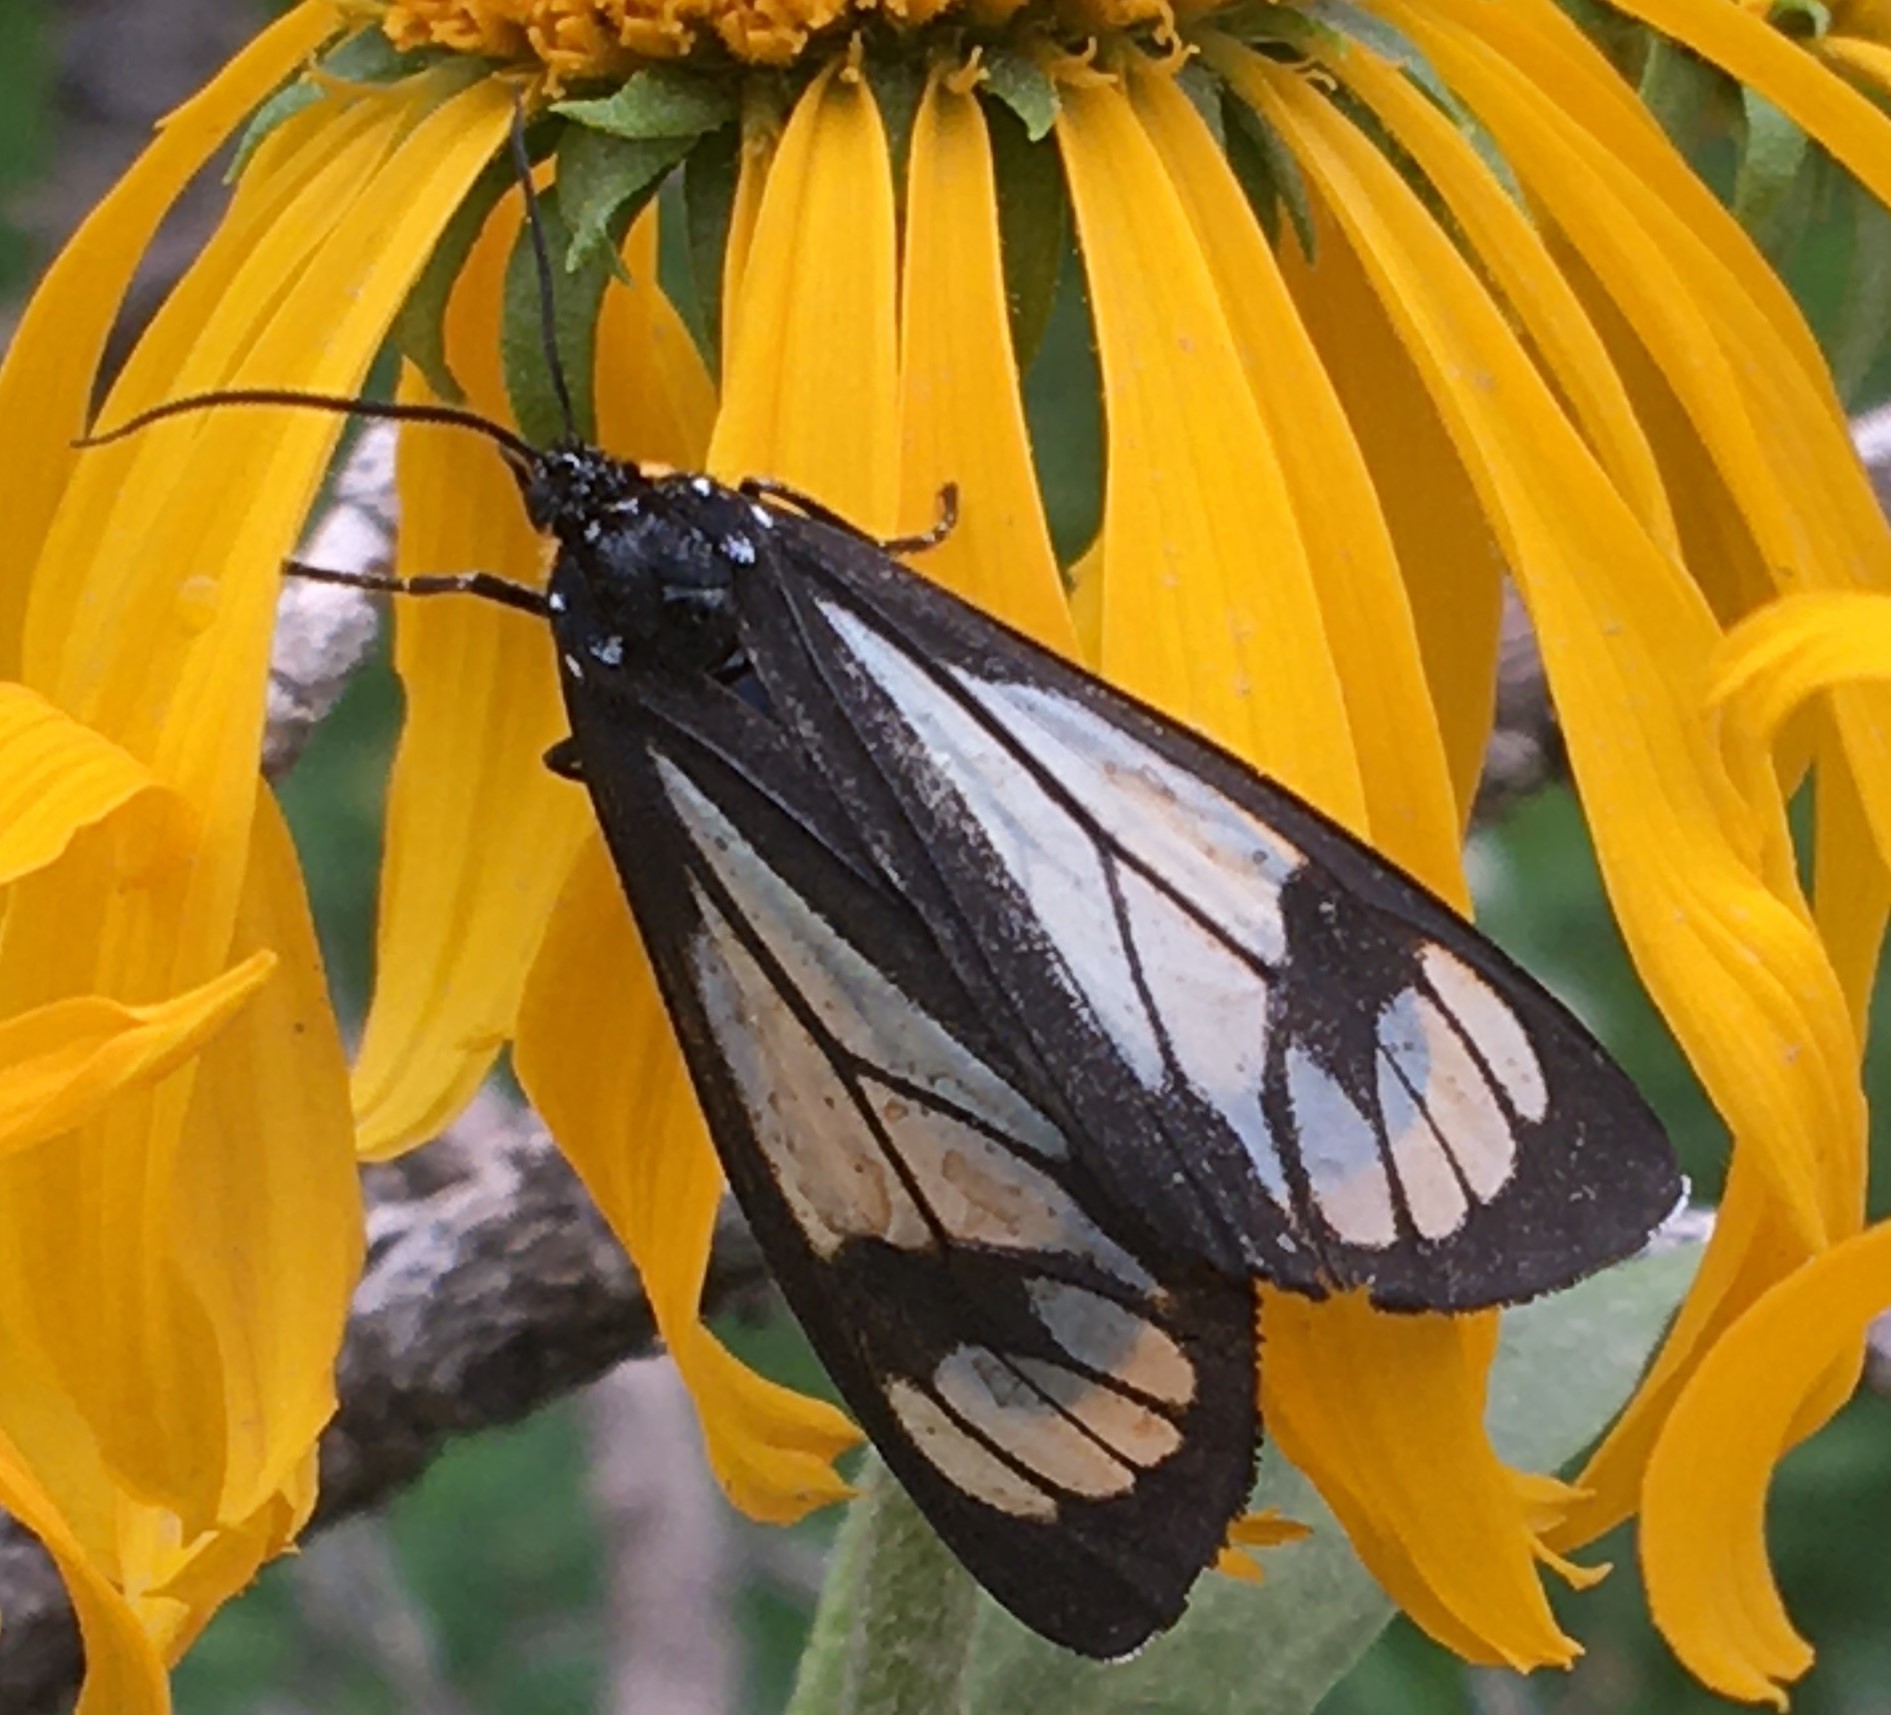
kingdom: Animalia
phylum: Arthropoda
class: Insecta
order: Lepidoptera
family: Erebidae
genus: Gnophaela
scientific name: Gnophaela vermiculata
